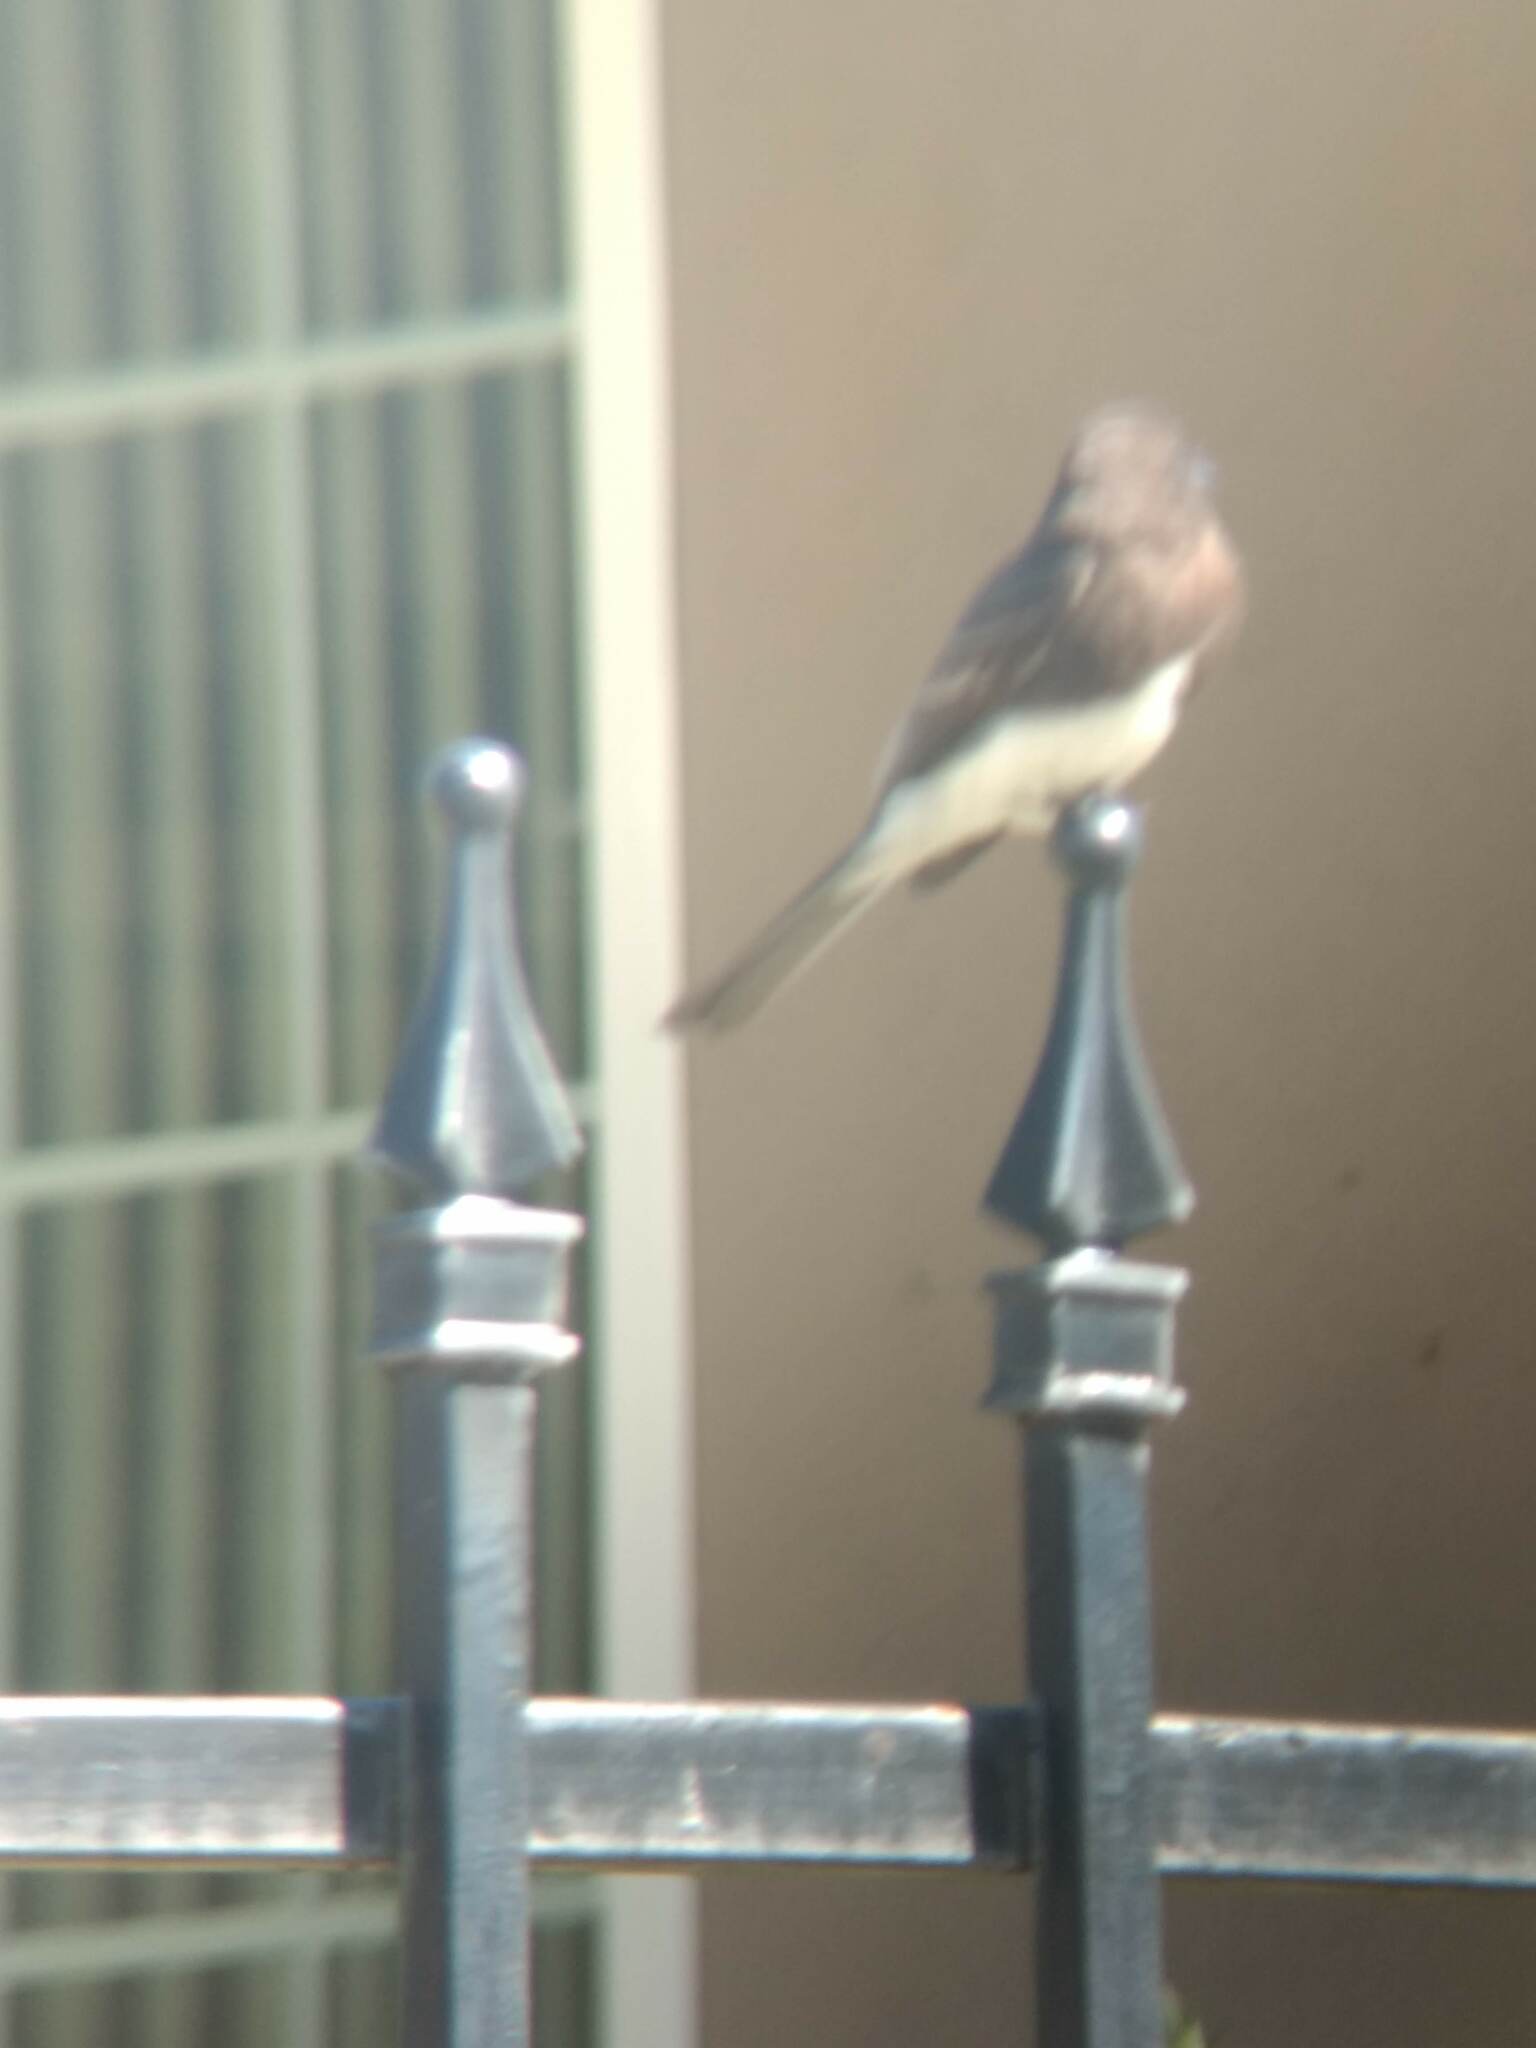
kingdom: Animalia
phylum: Chordata
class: Aves
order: Passeriformes
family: Tyrannidae
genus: Sayornis
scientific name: Sayornis nigricans
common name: Black phoebe
